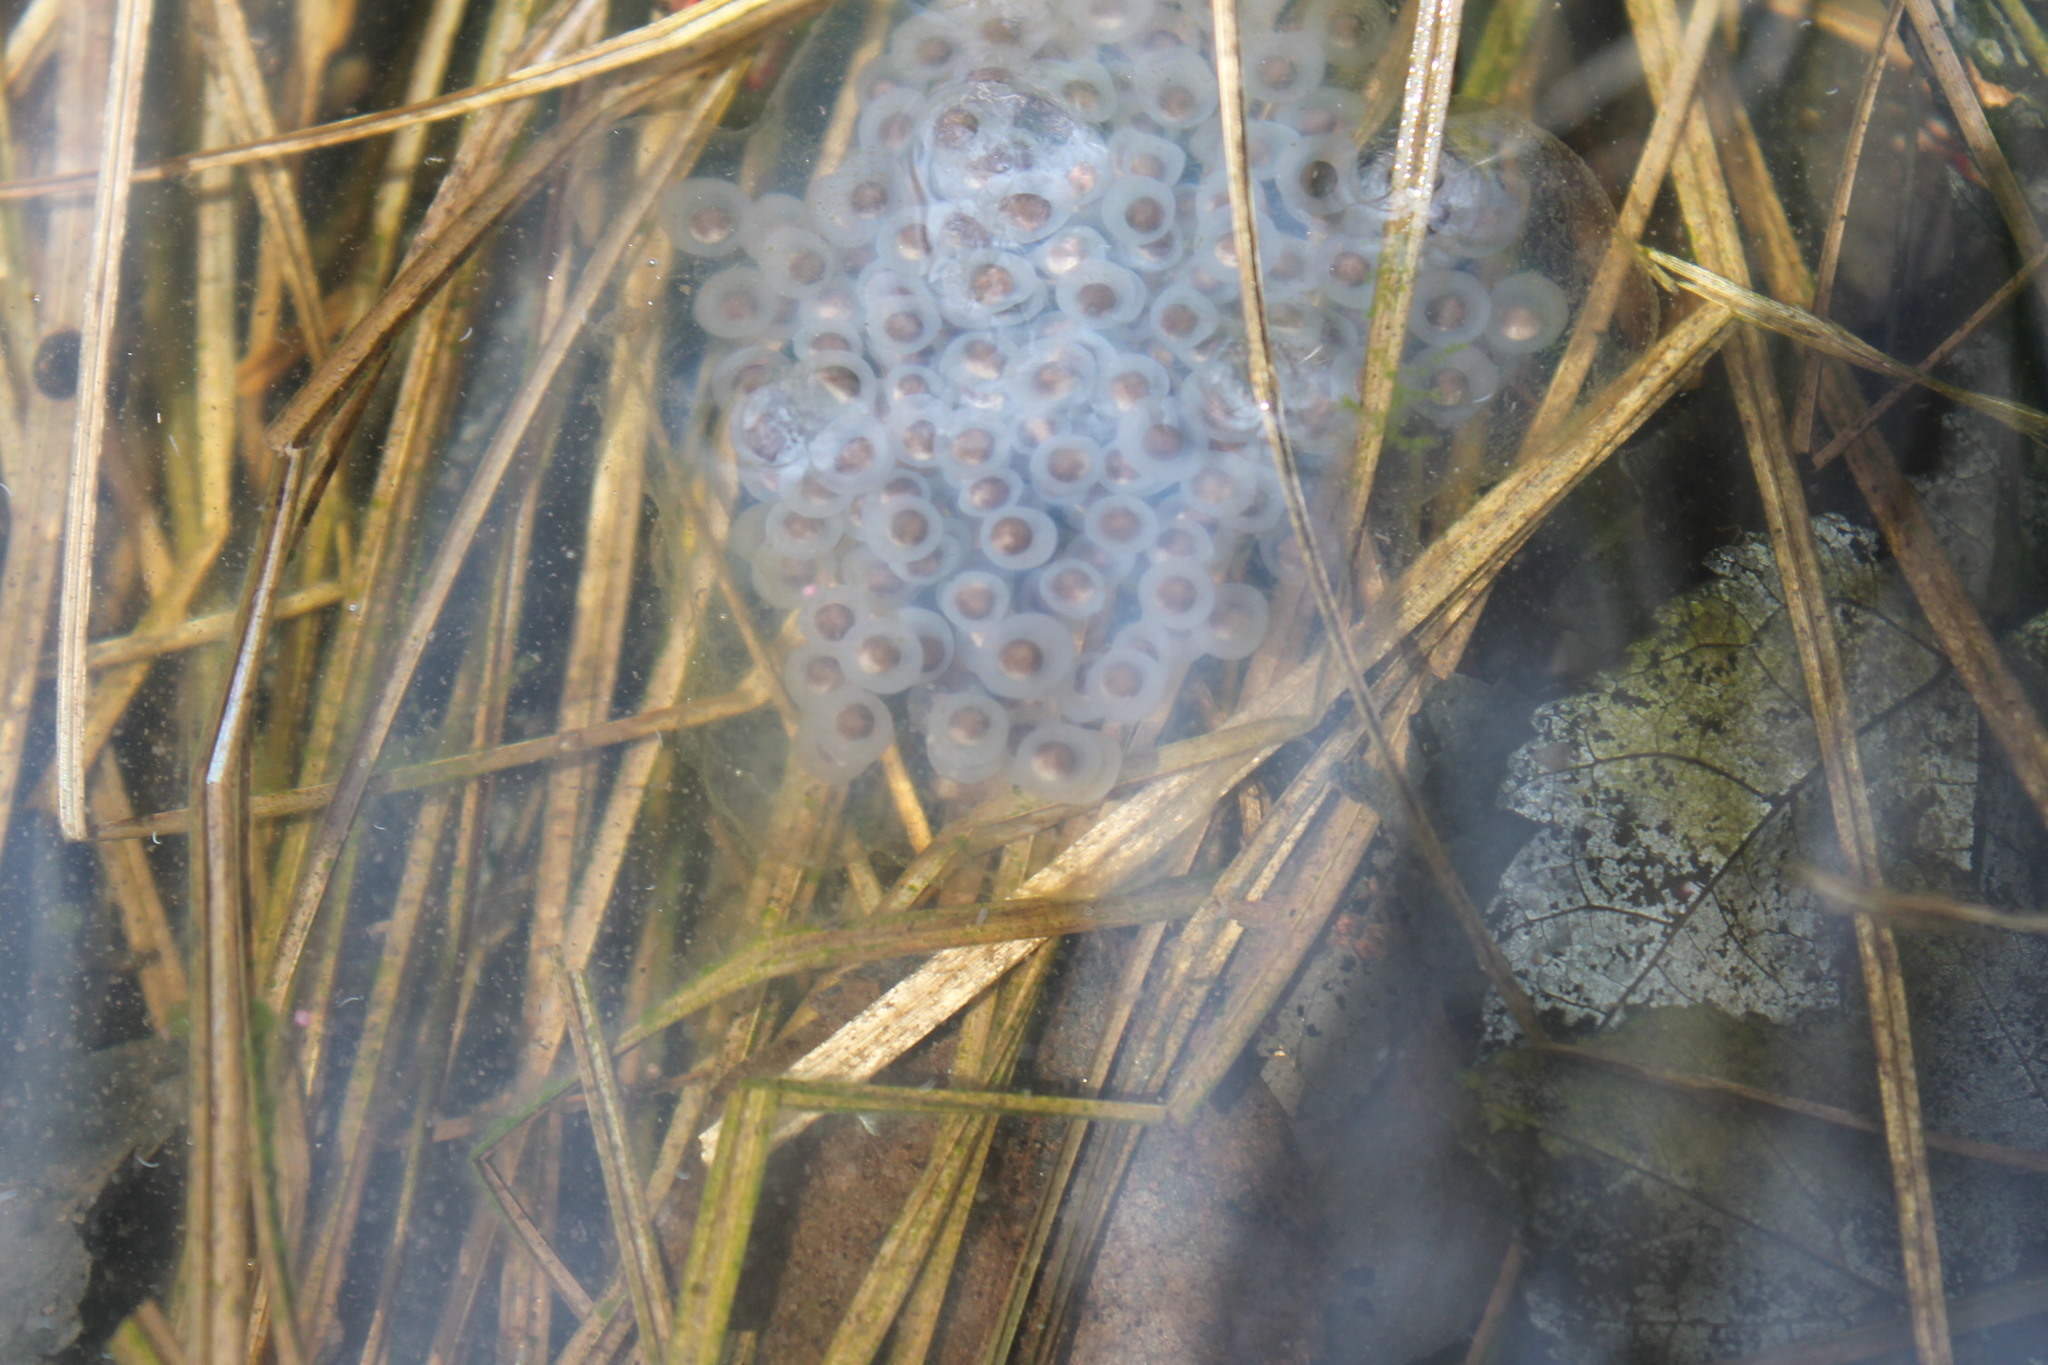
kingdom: Animalia
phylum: Chordata
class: Amphibia
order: Caudata
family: Ambystomatidae
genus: Ambystoma
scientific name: Ambystoma maculatum
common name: Spotted salamander
